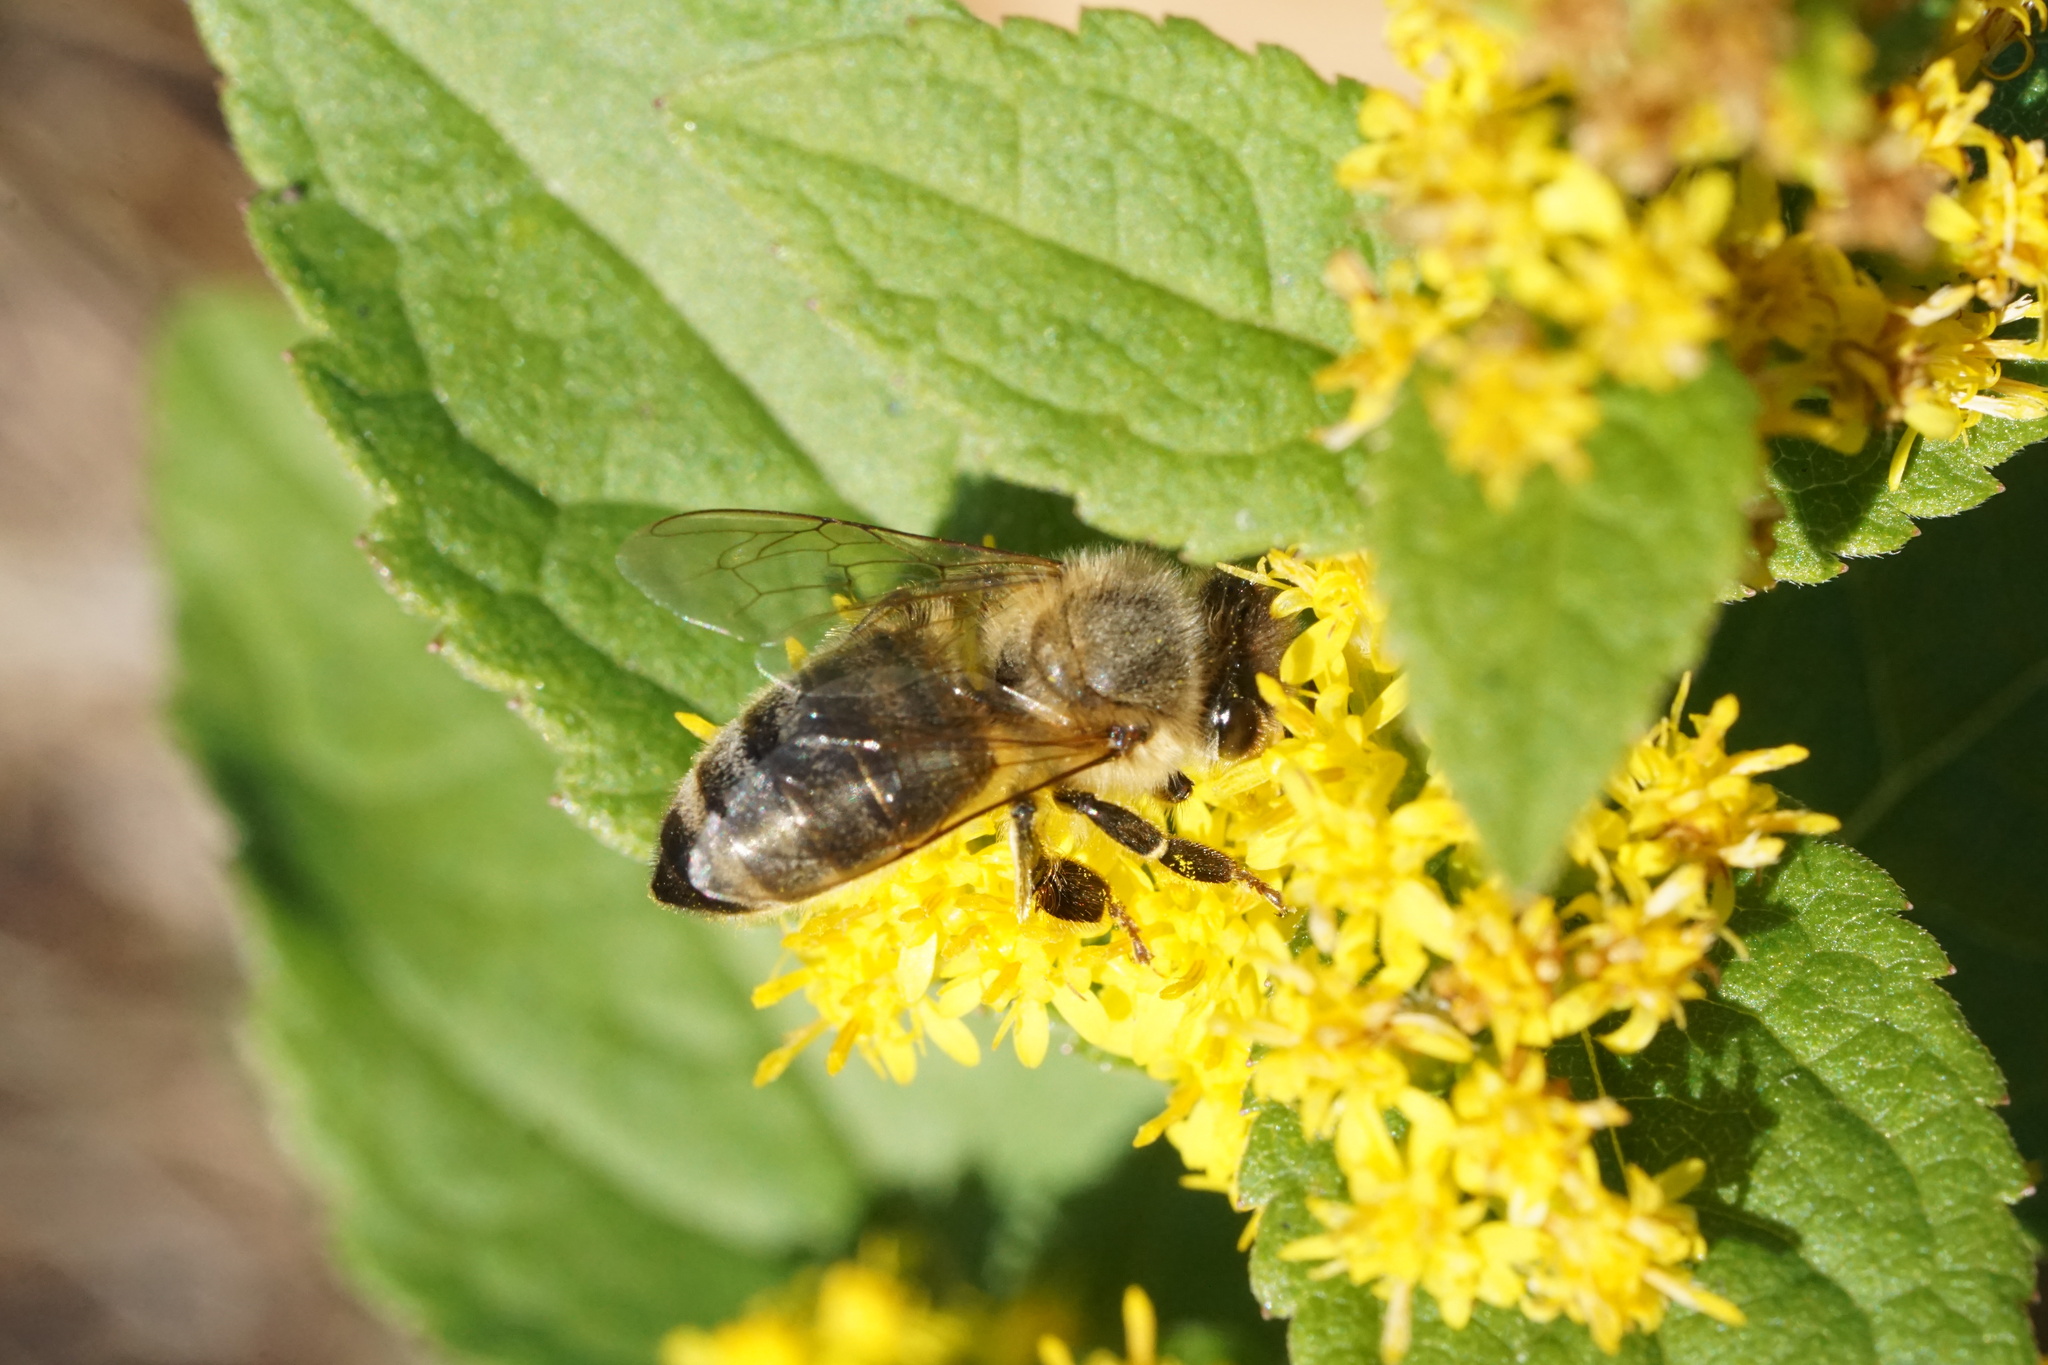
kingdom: Animalia
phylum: Arthropoda
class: Insecta
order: Hymenoptera
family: Apidae
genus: Apis
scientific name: Apis mellifera
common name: Honey bee
